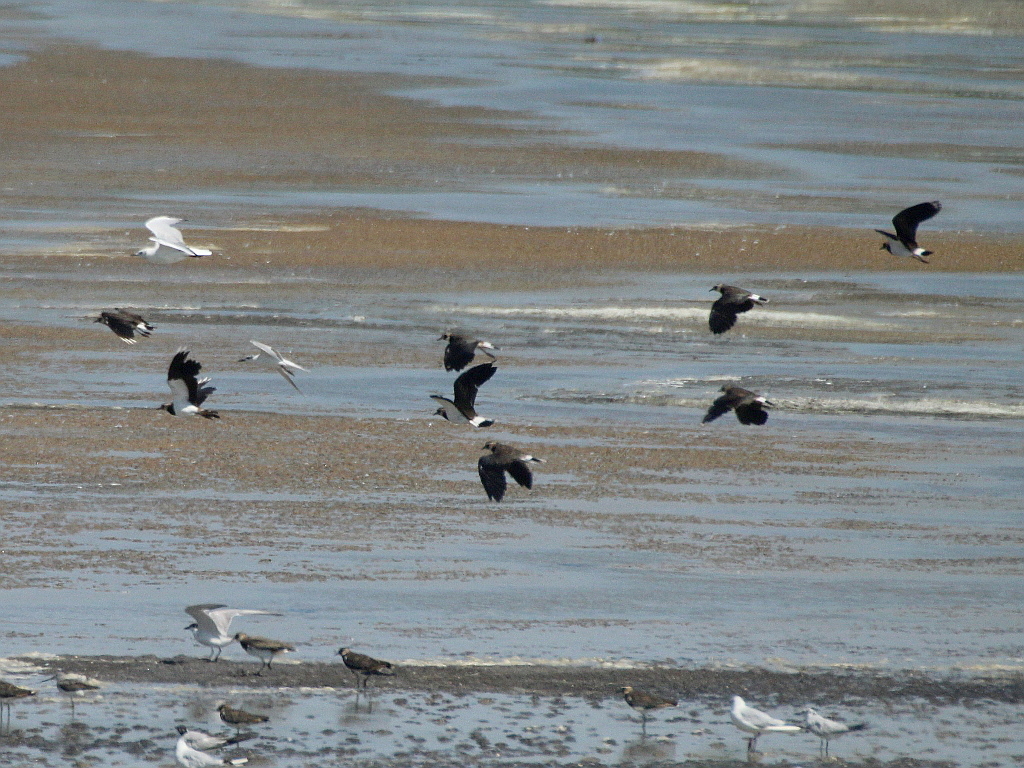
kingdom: Animalia
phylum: Chordata
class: Aves
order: Charadriiformes
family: Charadriidae
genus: Vanellus
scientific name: Vanellus vanellus
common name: Northern lapwing
